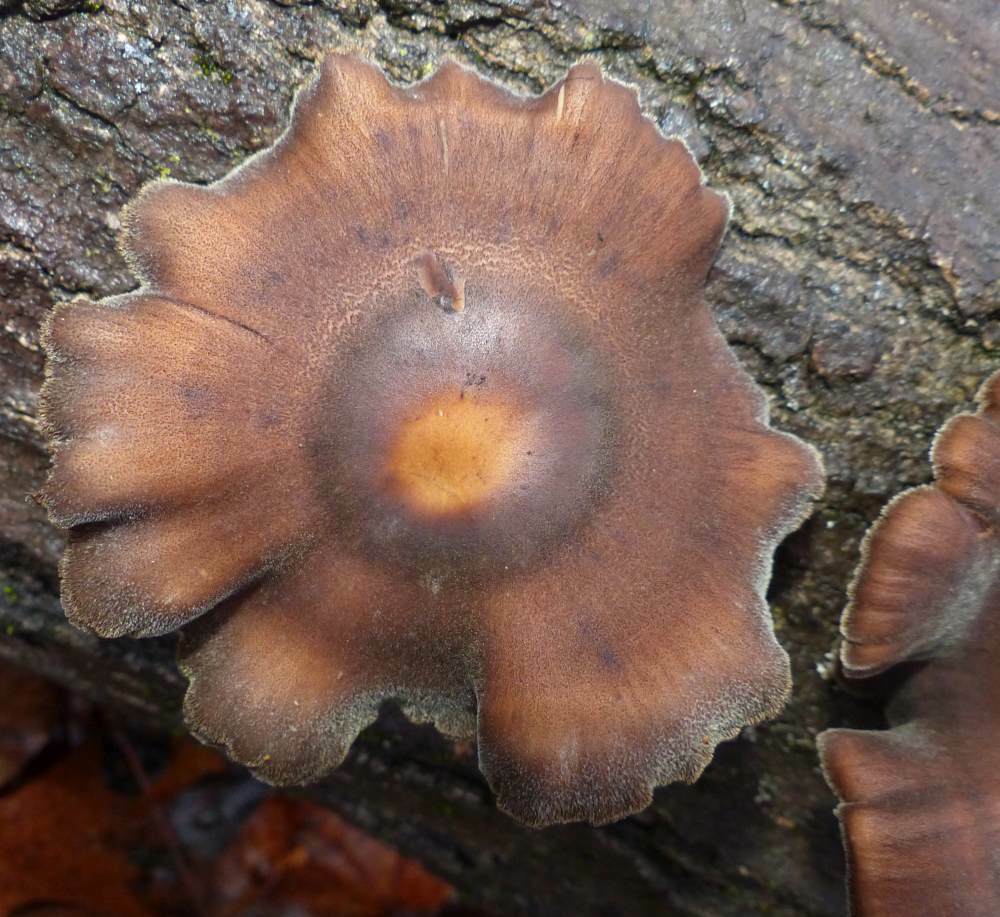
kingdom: Fungi
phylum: Basidiomycota
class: Agaricomycetes
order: Polyporales
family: Polyporaceae
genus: Lentinus
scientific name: Lentinus brumalis
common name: Winter polypore
